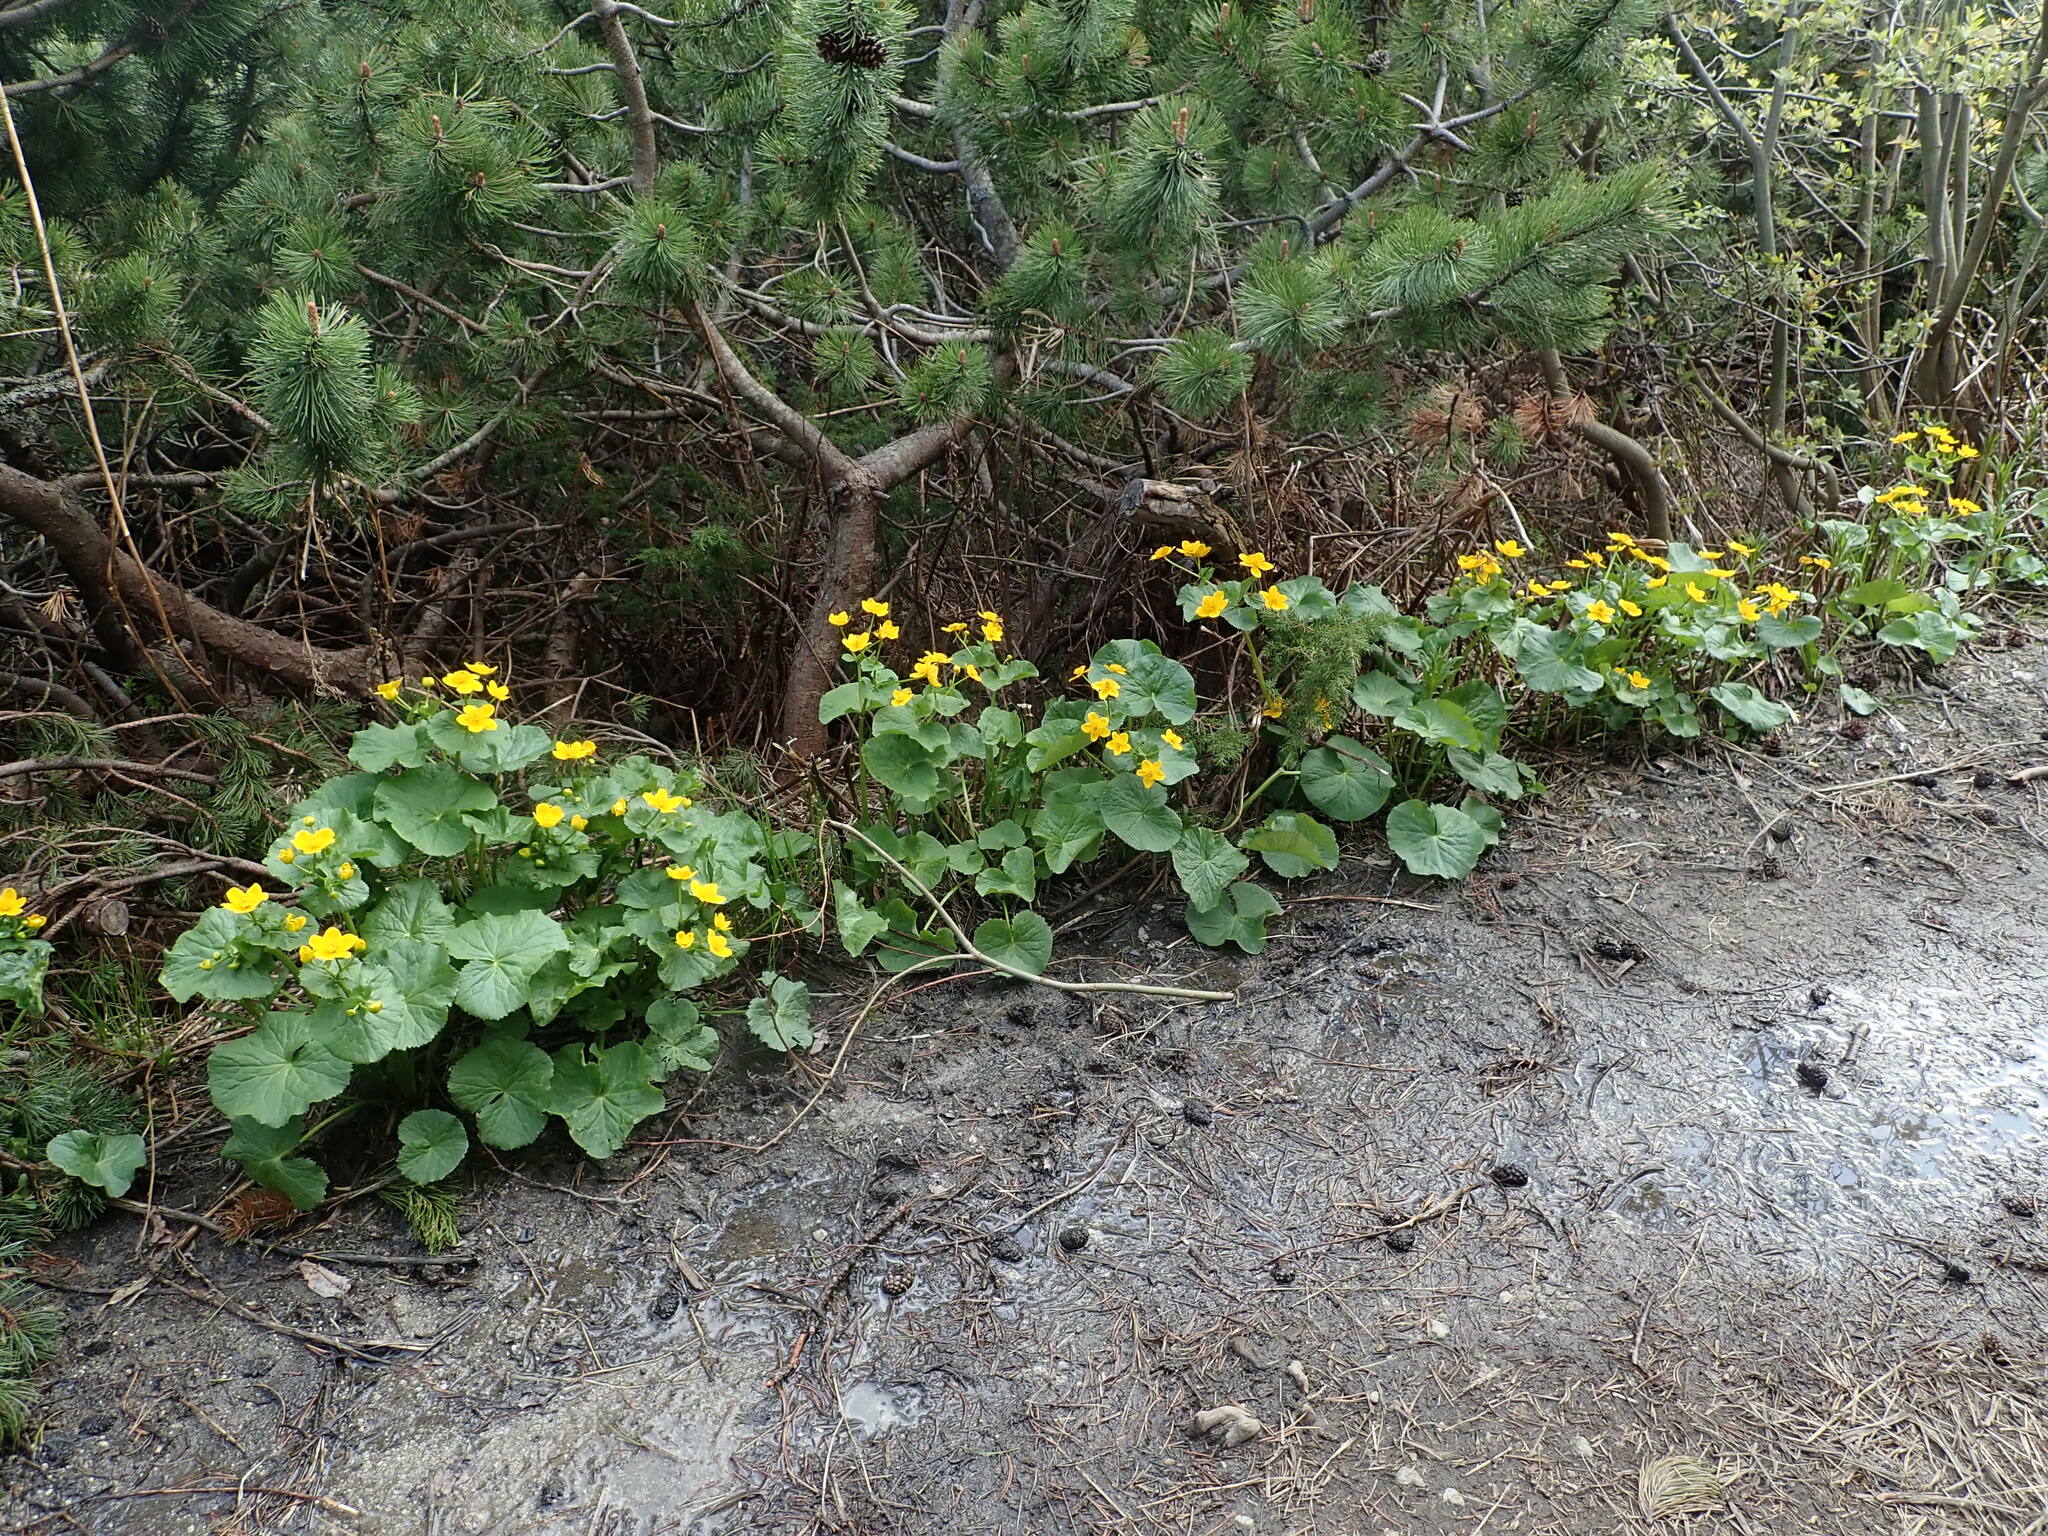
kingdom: Plantae
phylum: Tracheophyta
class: Magnoliopsida
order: Ranunculales
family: Ranunculaceae
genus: Caltha
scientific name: Caltha palustris
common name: Marsh marigold
